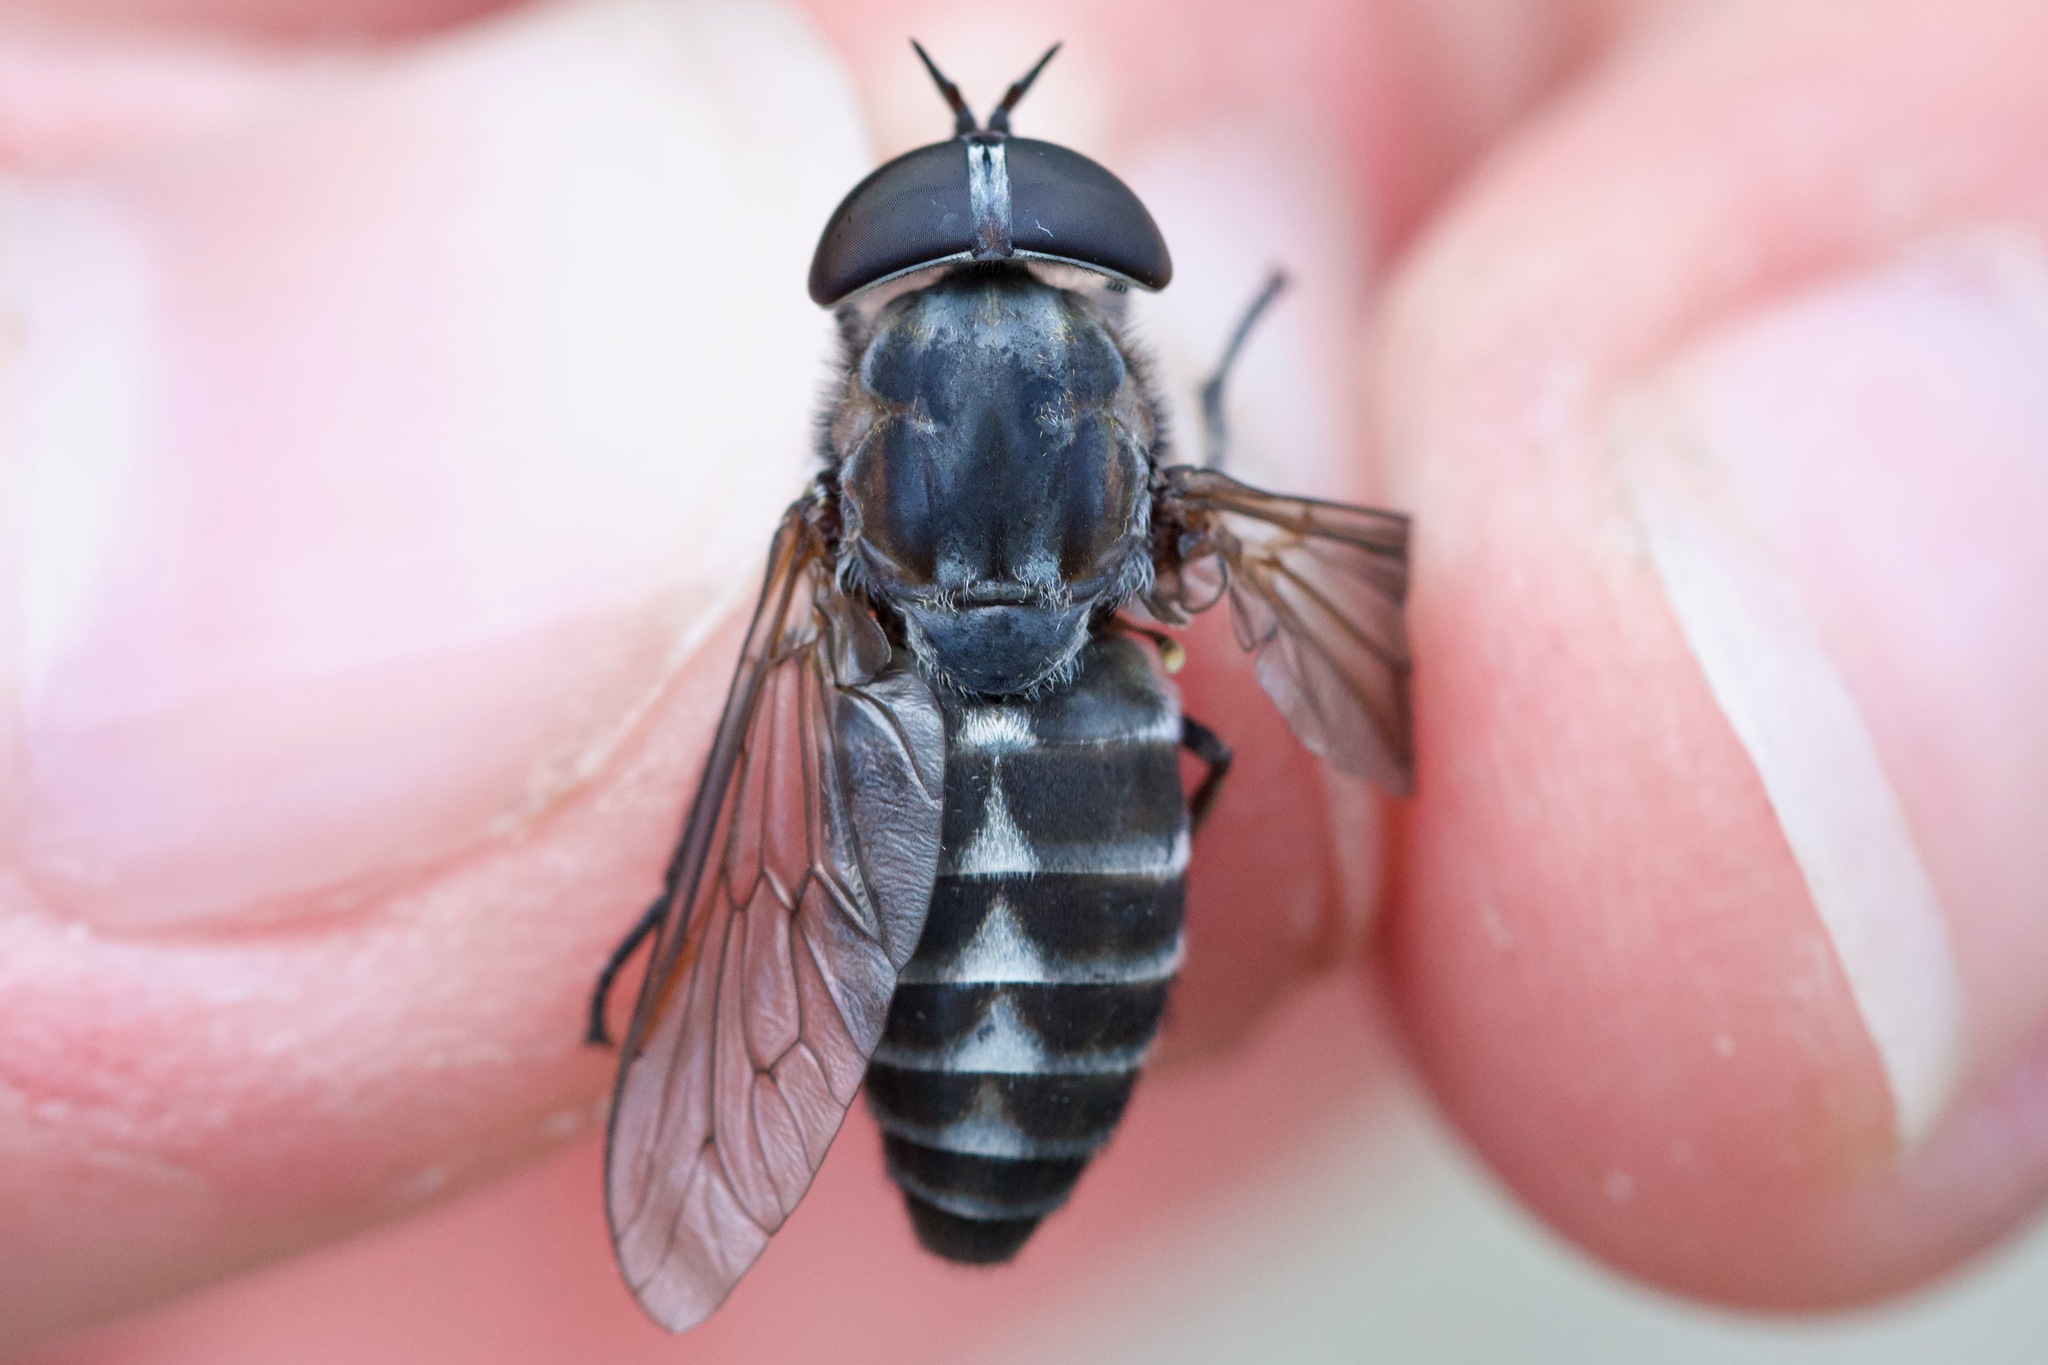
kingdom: Animalia
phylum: Arthropoda
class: Insecta
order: Diptera
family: Tabanidae
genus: Tabanus
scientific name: Tabanus nigripes
